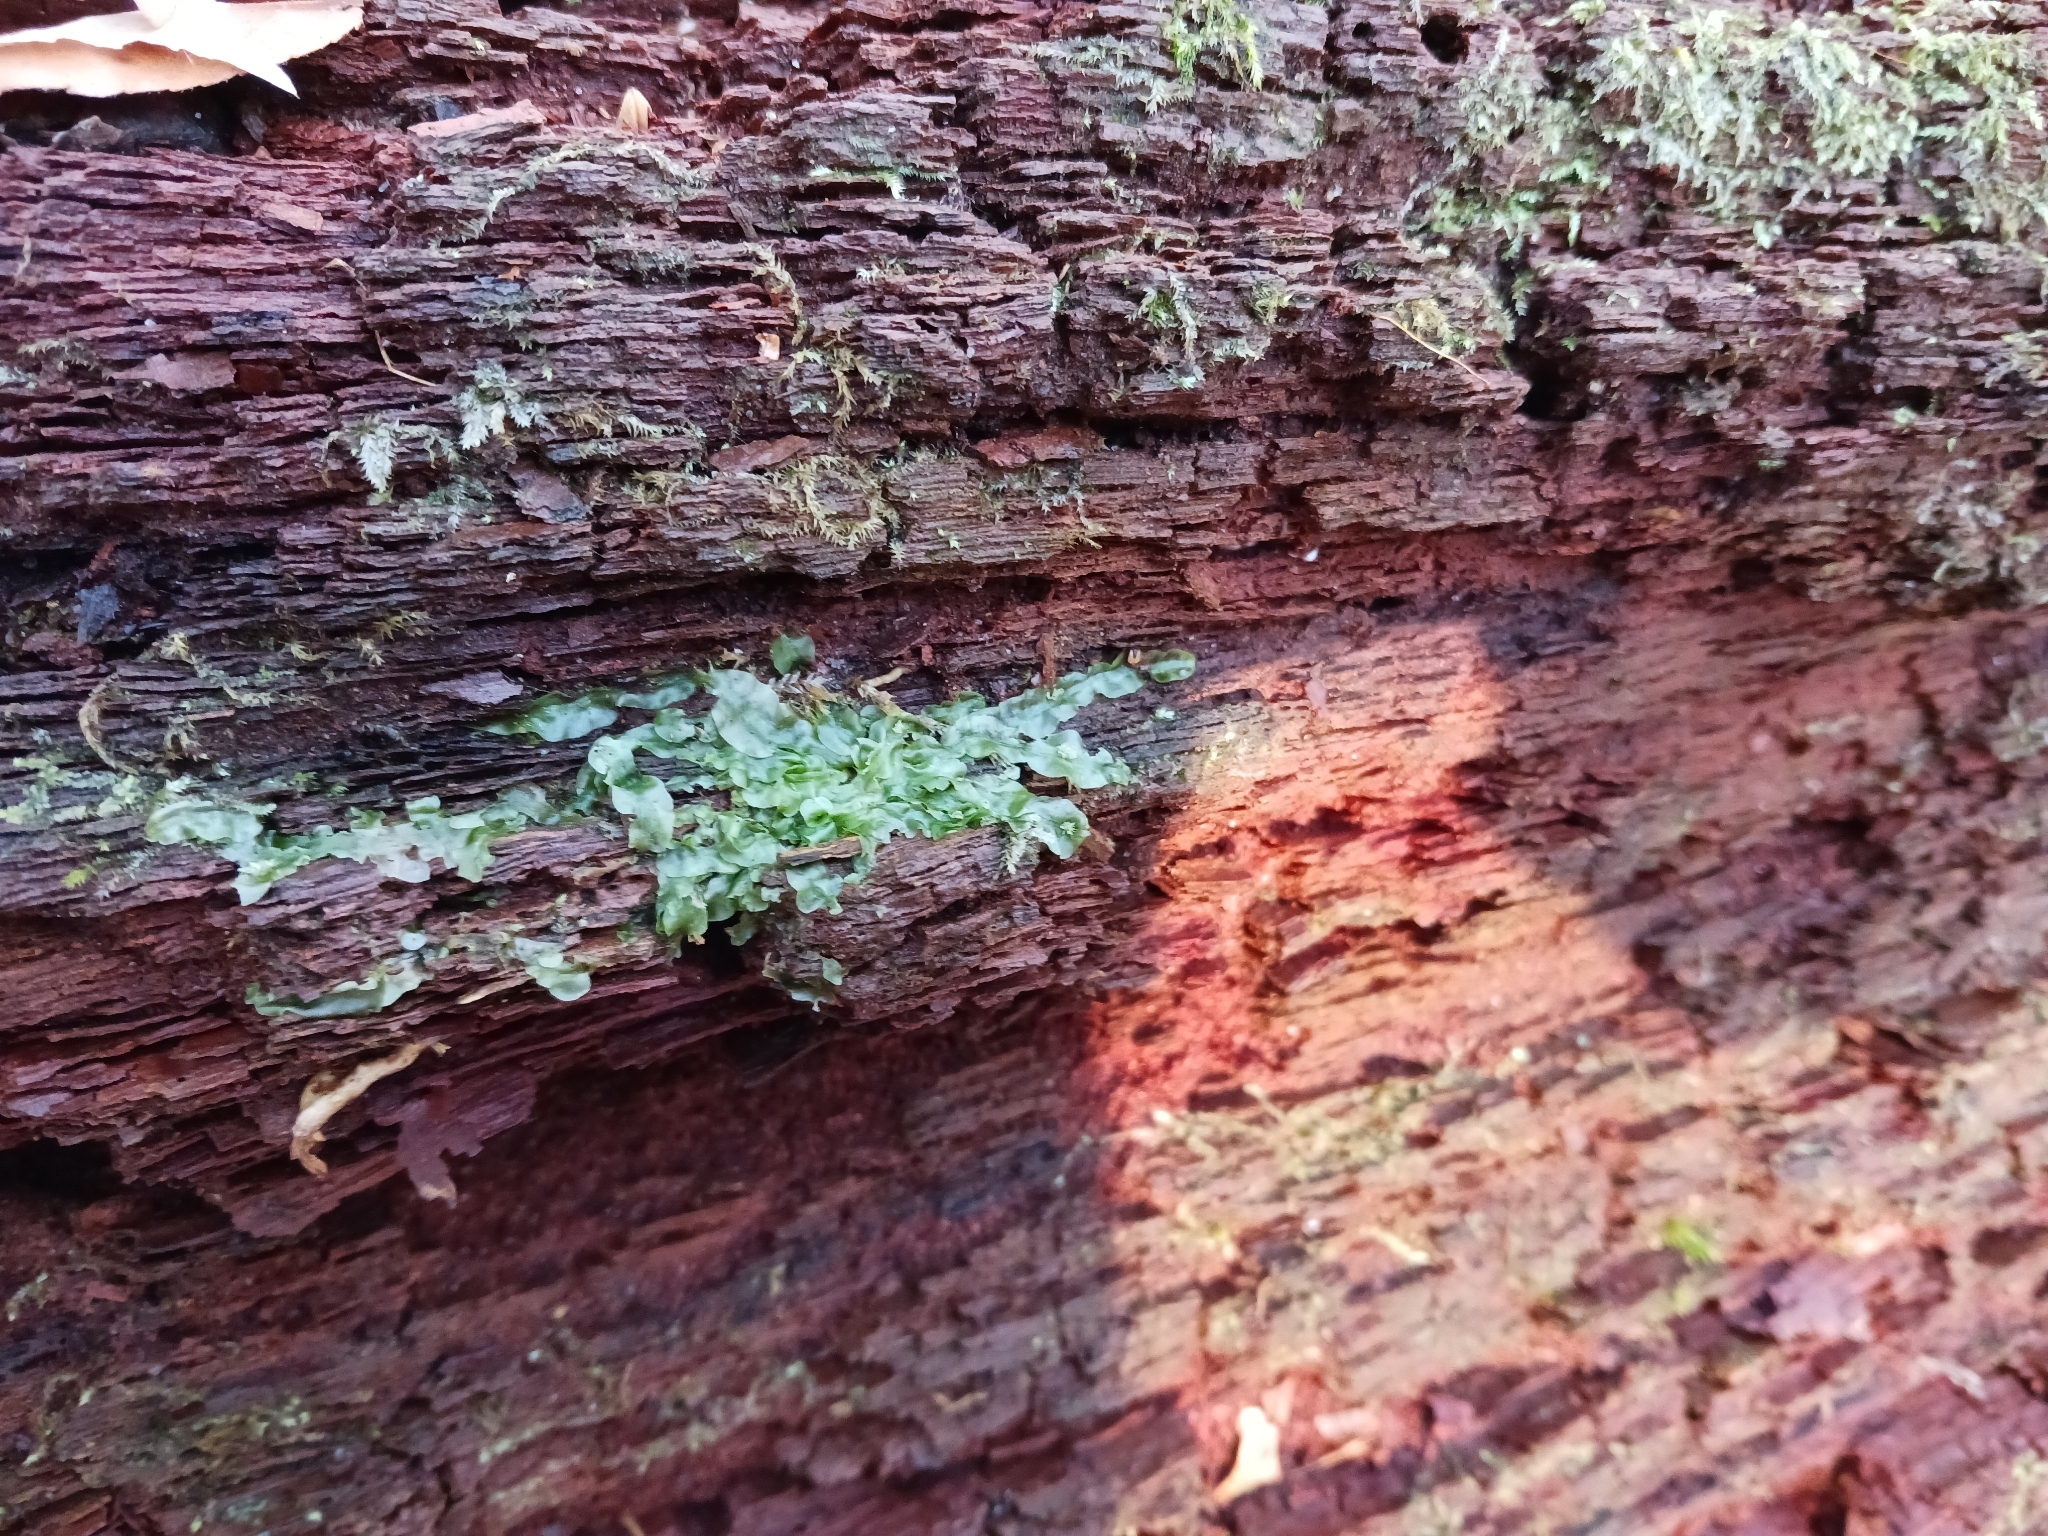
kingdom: Plantae
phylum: Marchantiophyta
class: Jungermanniopsida
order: Pallaviciniales
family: Pallaviciniaceae
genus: Pallavicinia
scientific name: Pallavicinia lyellii
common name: Veilwort
